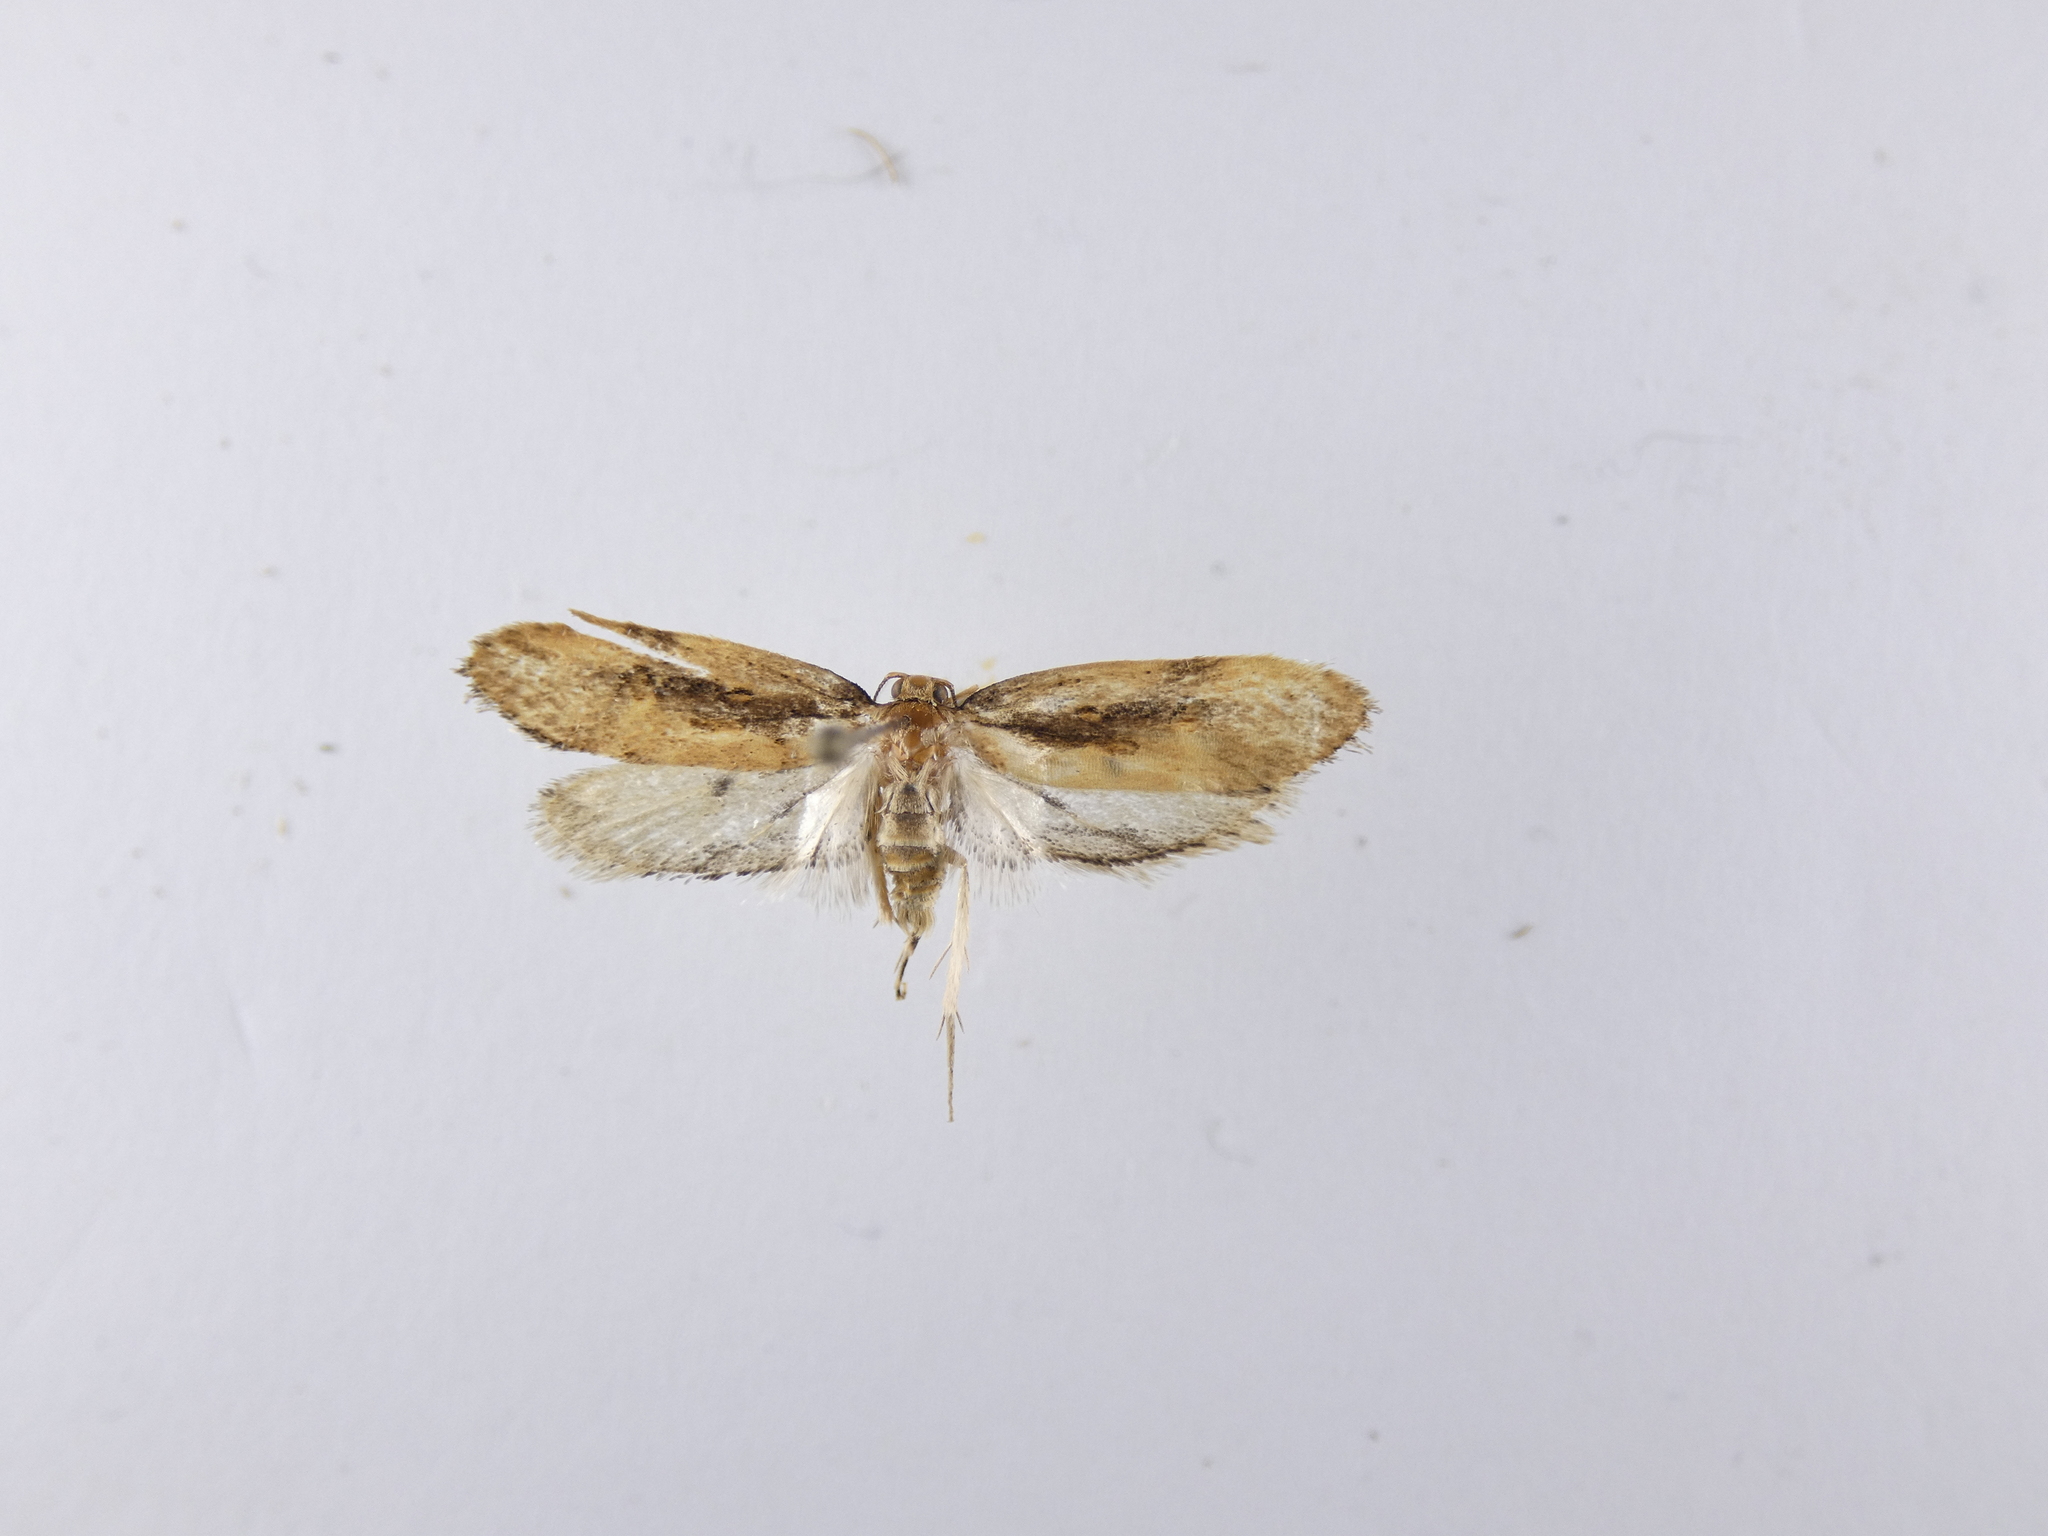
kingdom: Animalia
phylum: Arthropoda
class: Insecta
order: Lepidoptera
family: Oecophoridae
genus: Atomotricha
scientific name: Atomotricha isogama
